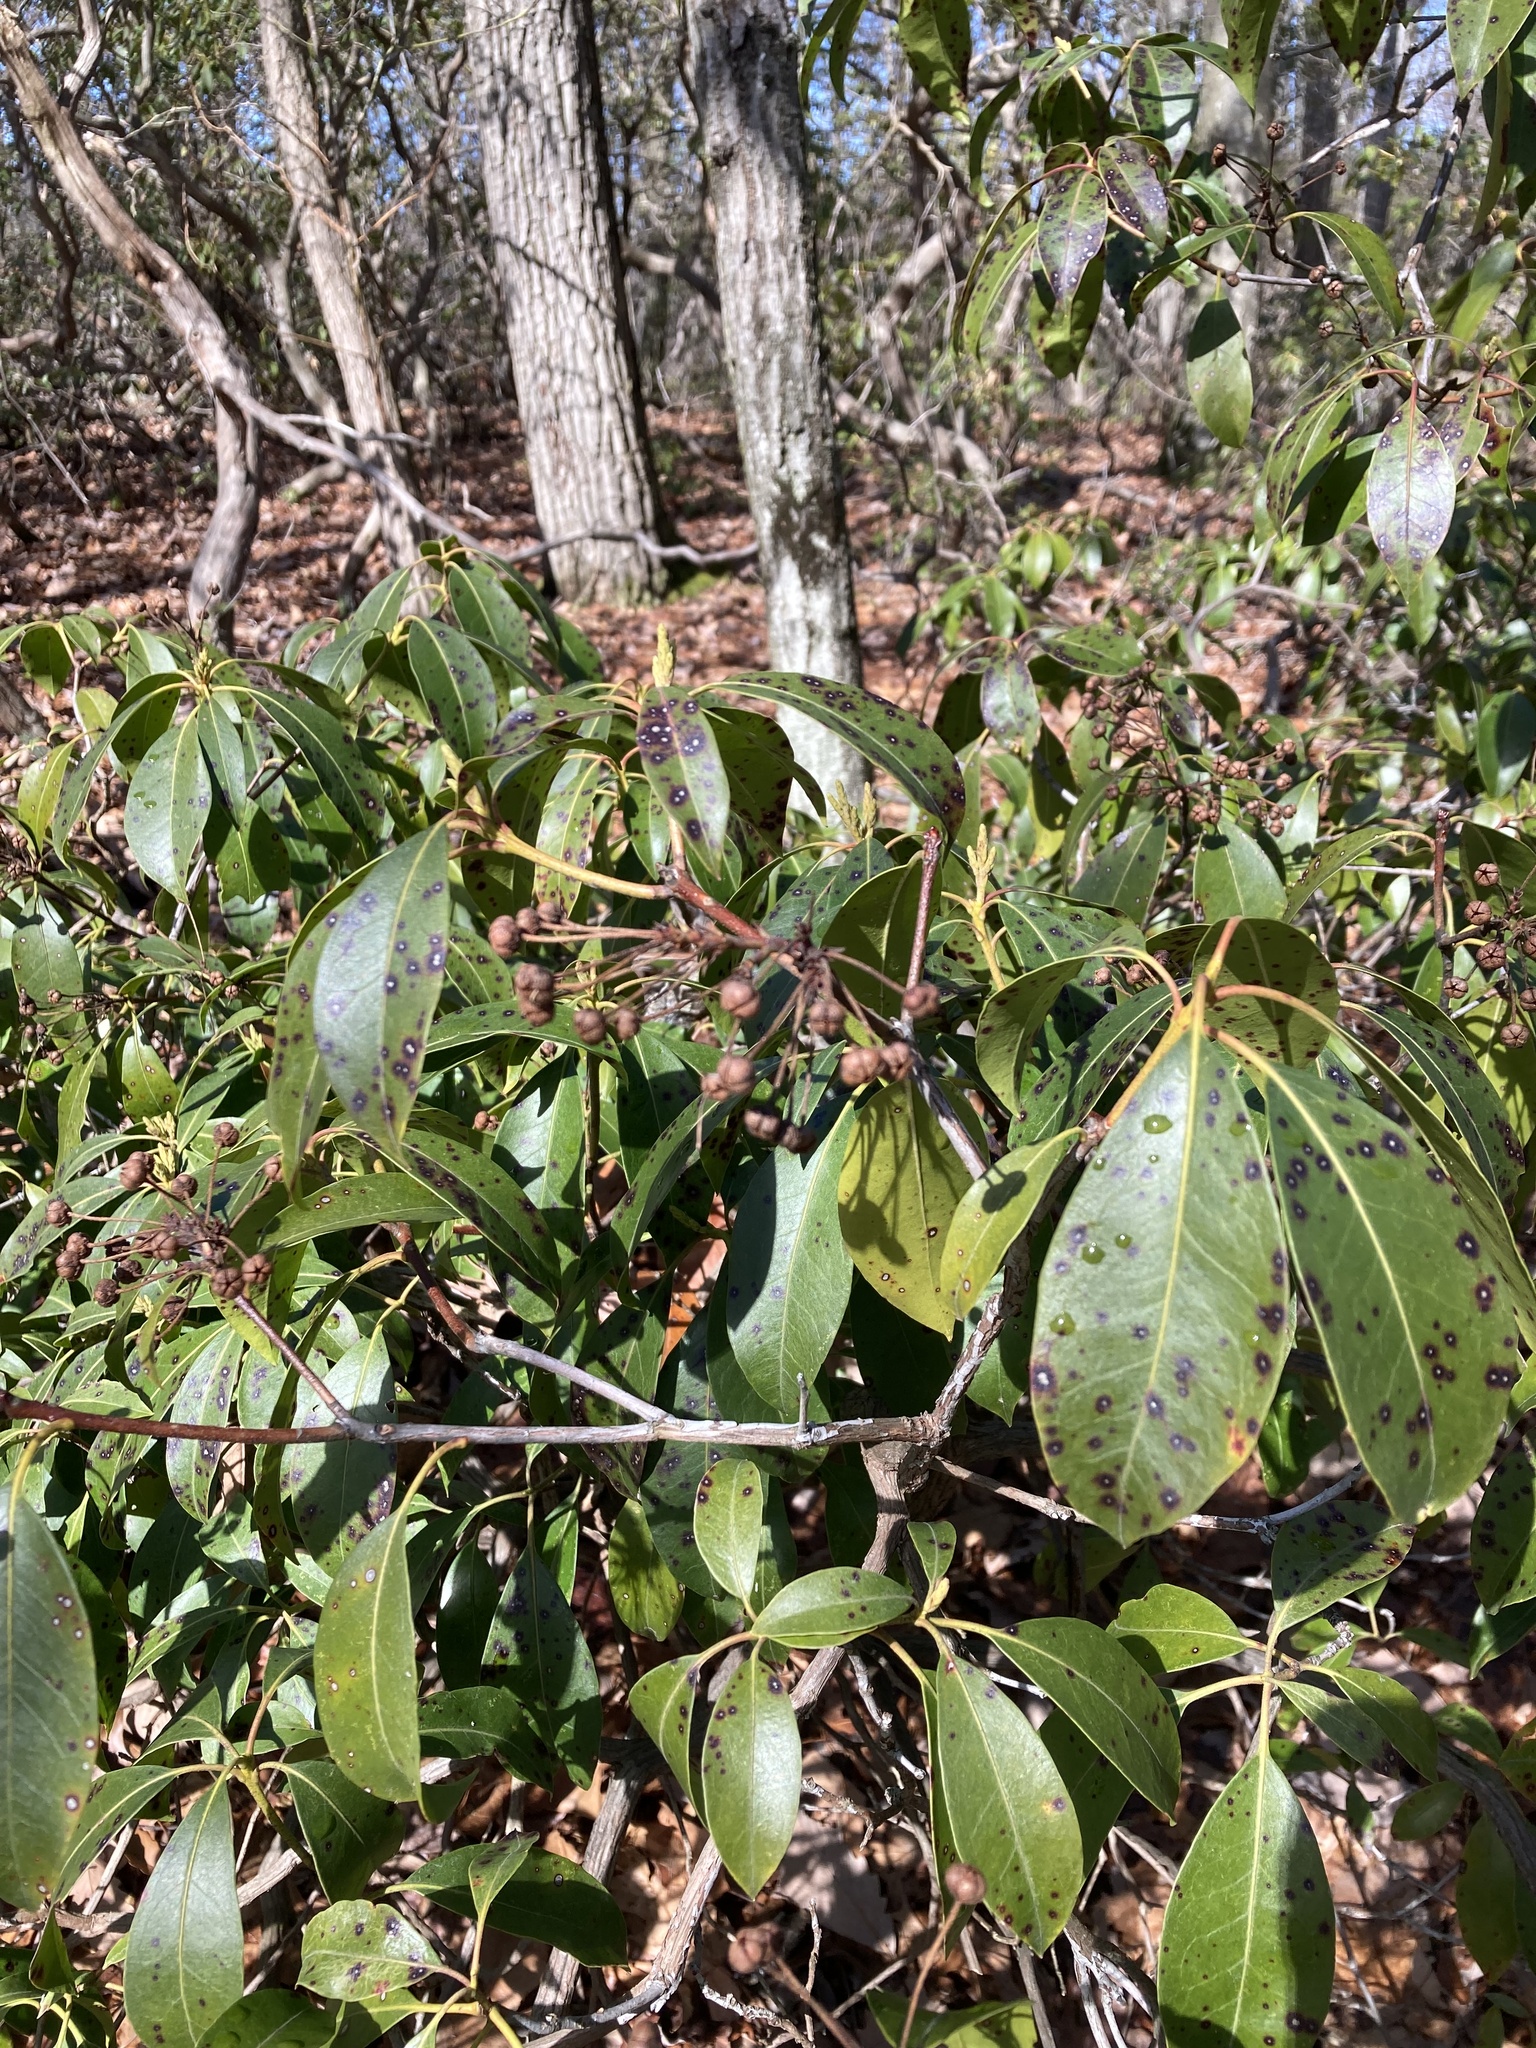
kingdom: Plantae
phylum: Tracheophyta
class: Magnoliopsida
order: Ericales
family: Ericaceae
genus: Kalmia
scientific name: Kalmia latifolia
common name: Mountain-laurel
